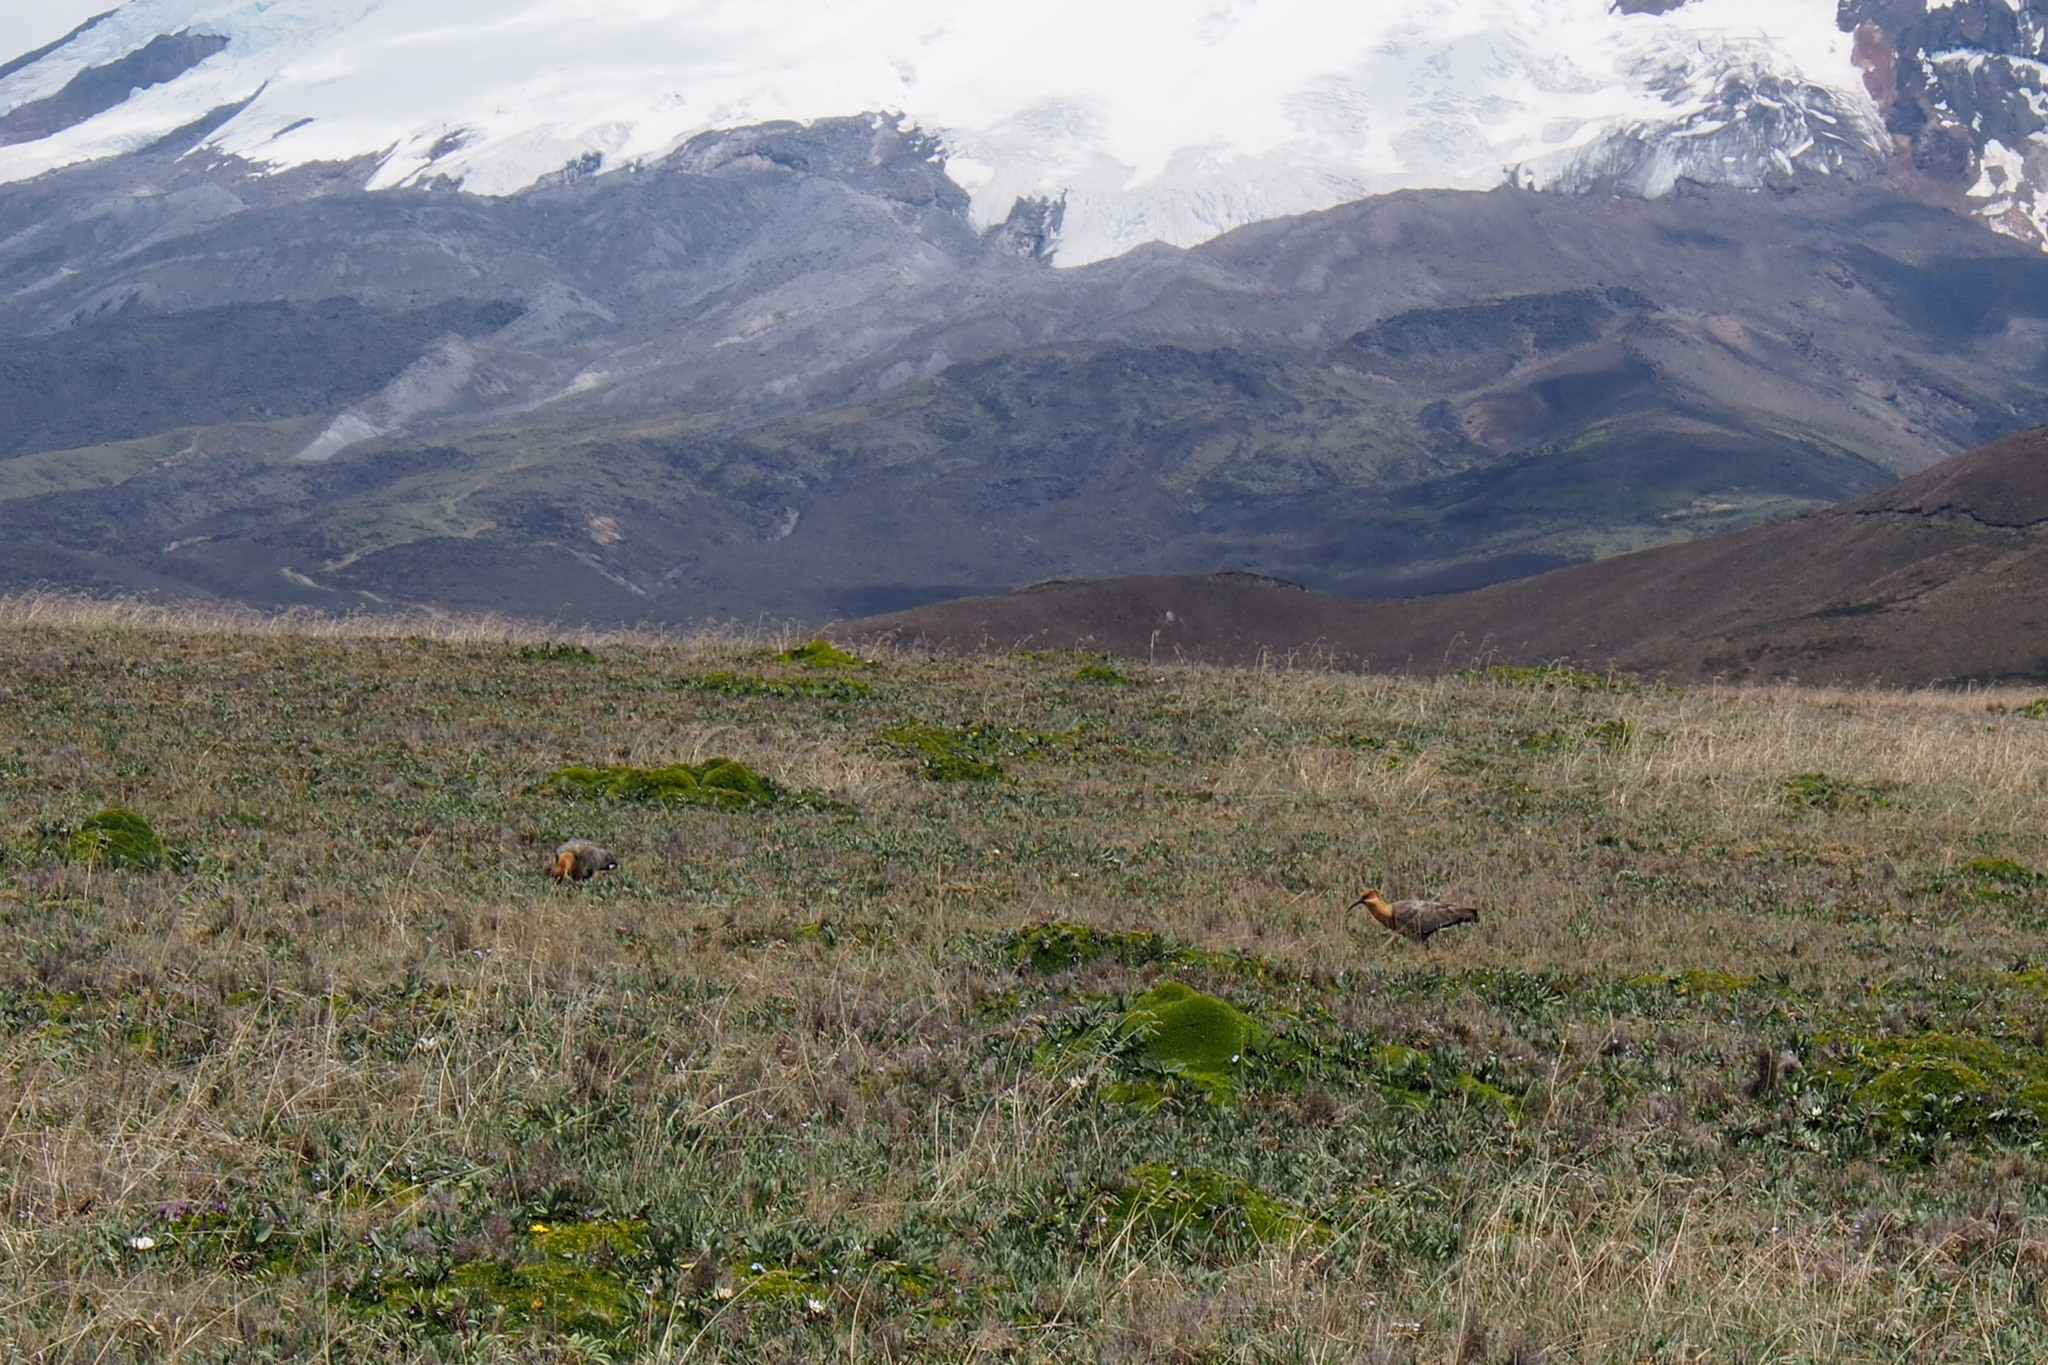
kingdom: Animalia
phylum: Chordata
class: Aves
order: Pelecaniformes
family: Threskiornithidae
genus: Theristicus
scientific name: Theristicus melanopis
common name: Black-faced ibis
